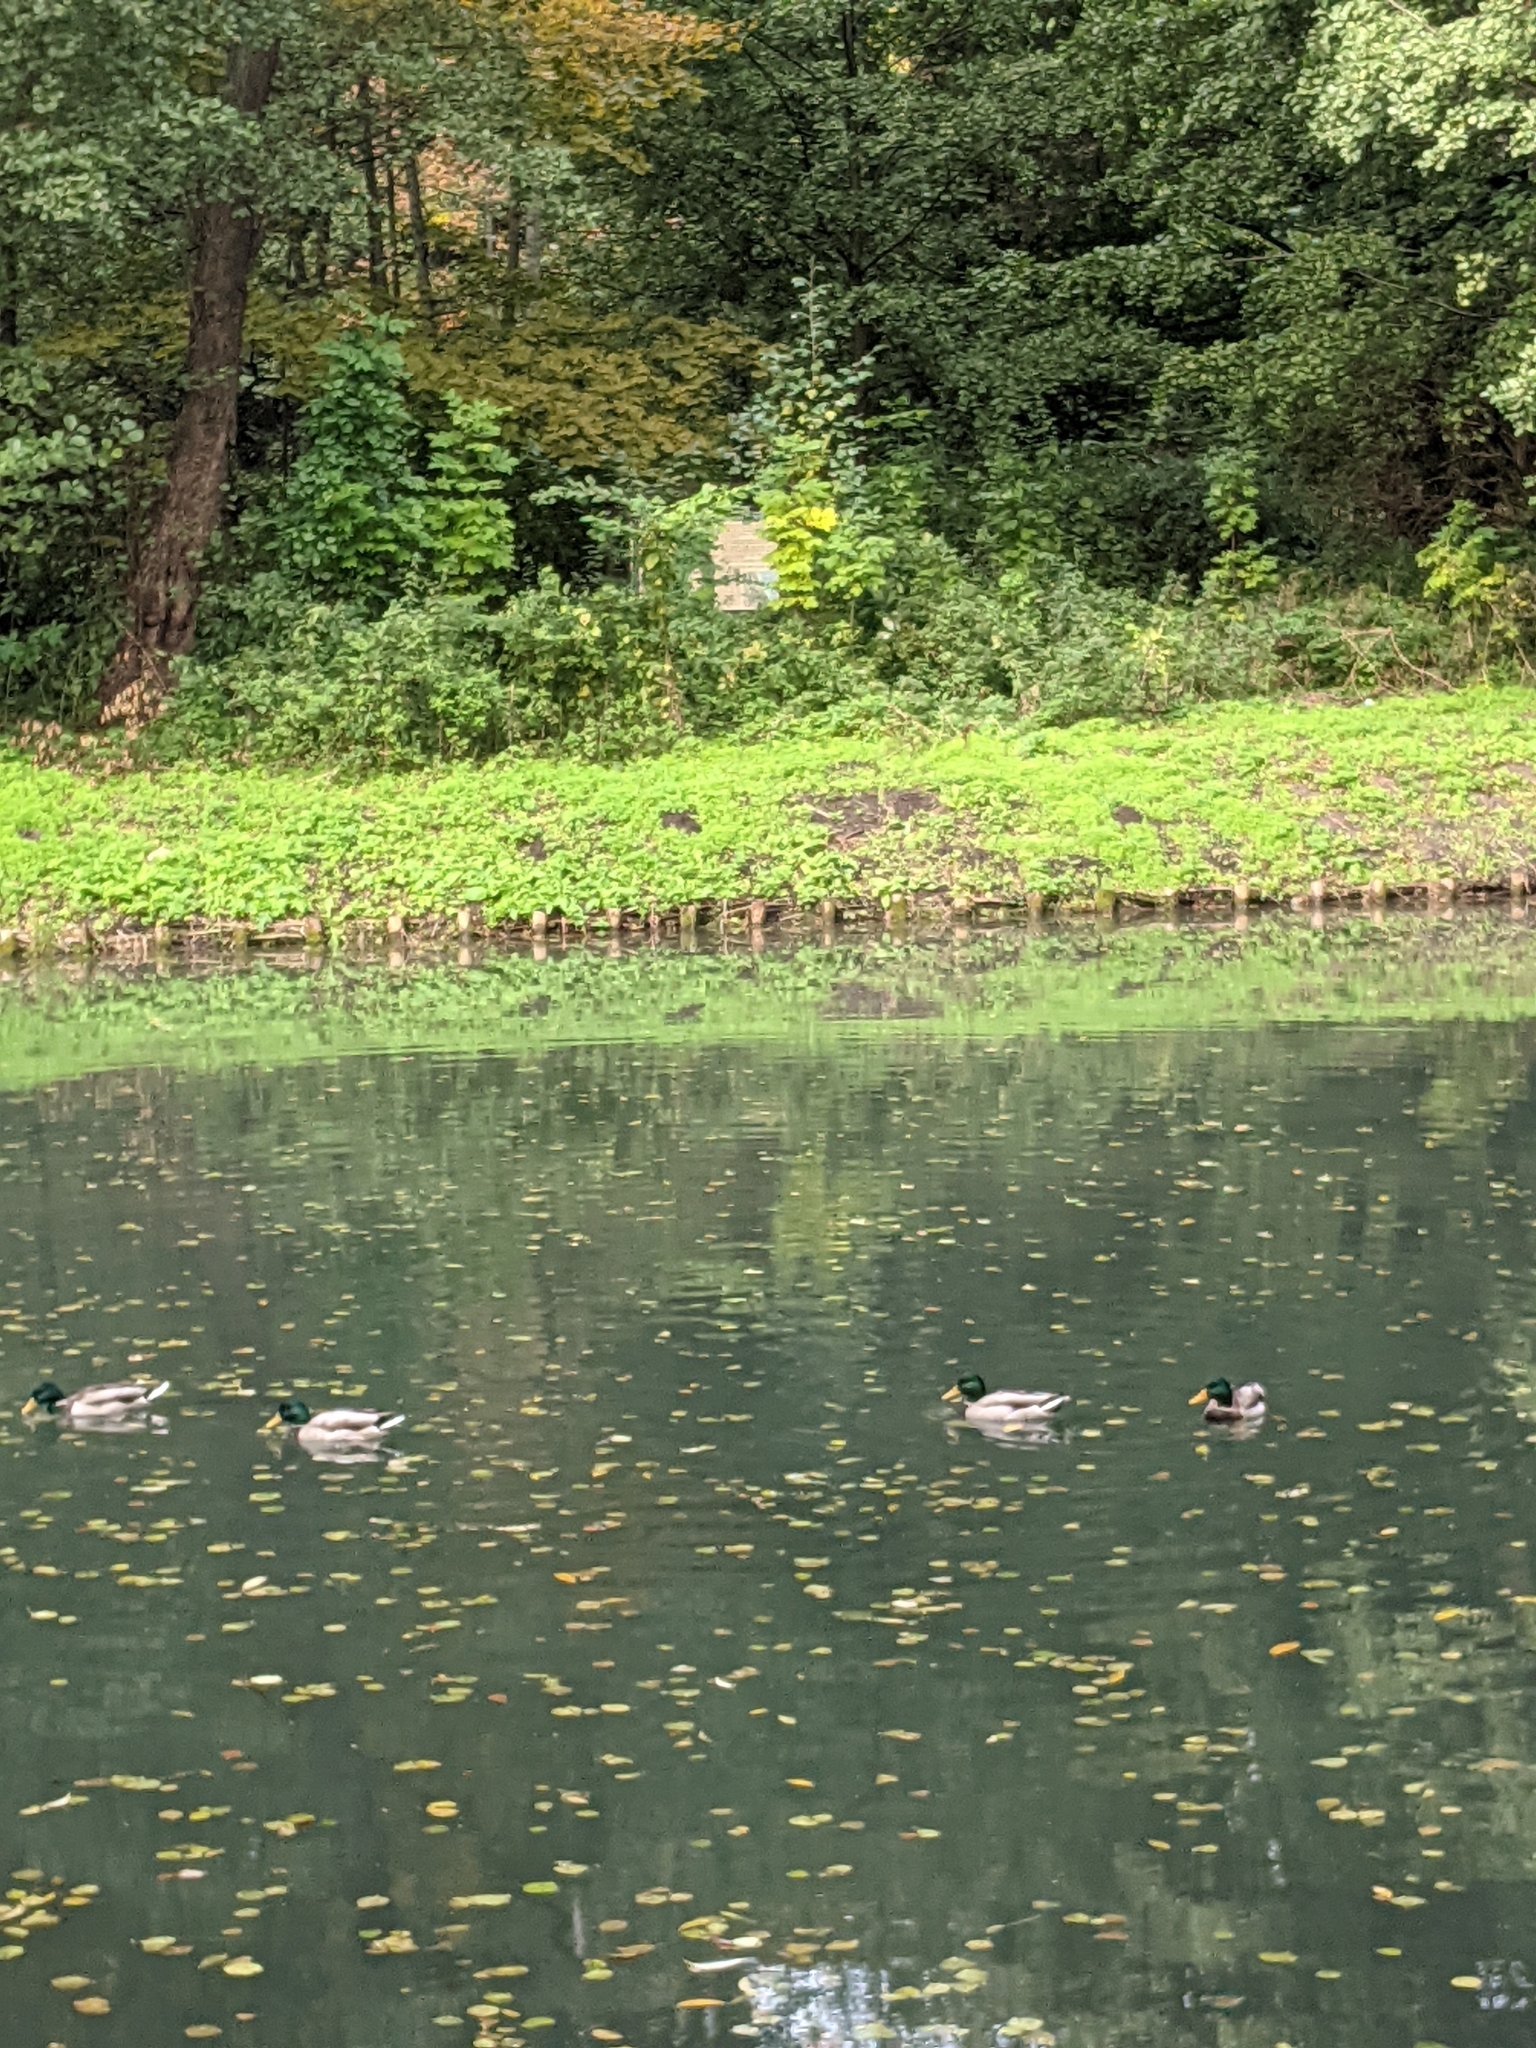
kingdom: Animalia
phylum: Chordata
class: Aves
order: Anseriformes
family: Anatidae
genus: Anas
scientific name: Anas platyrhynchos
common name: Mallard
